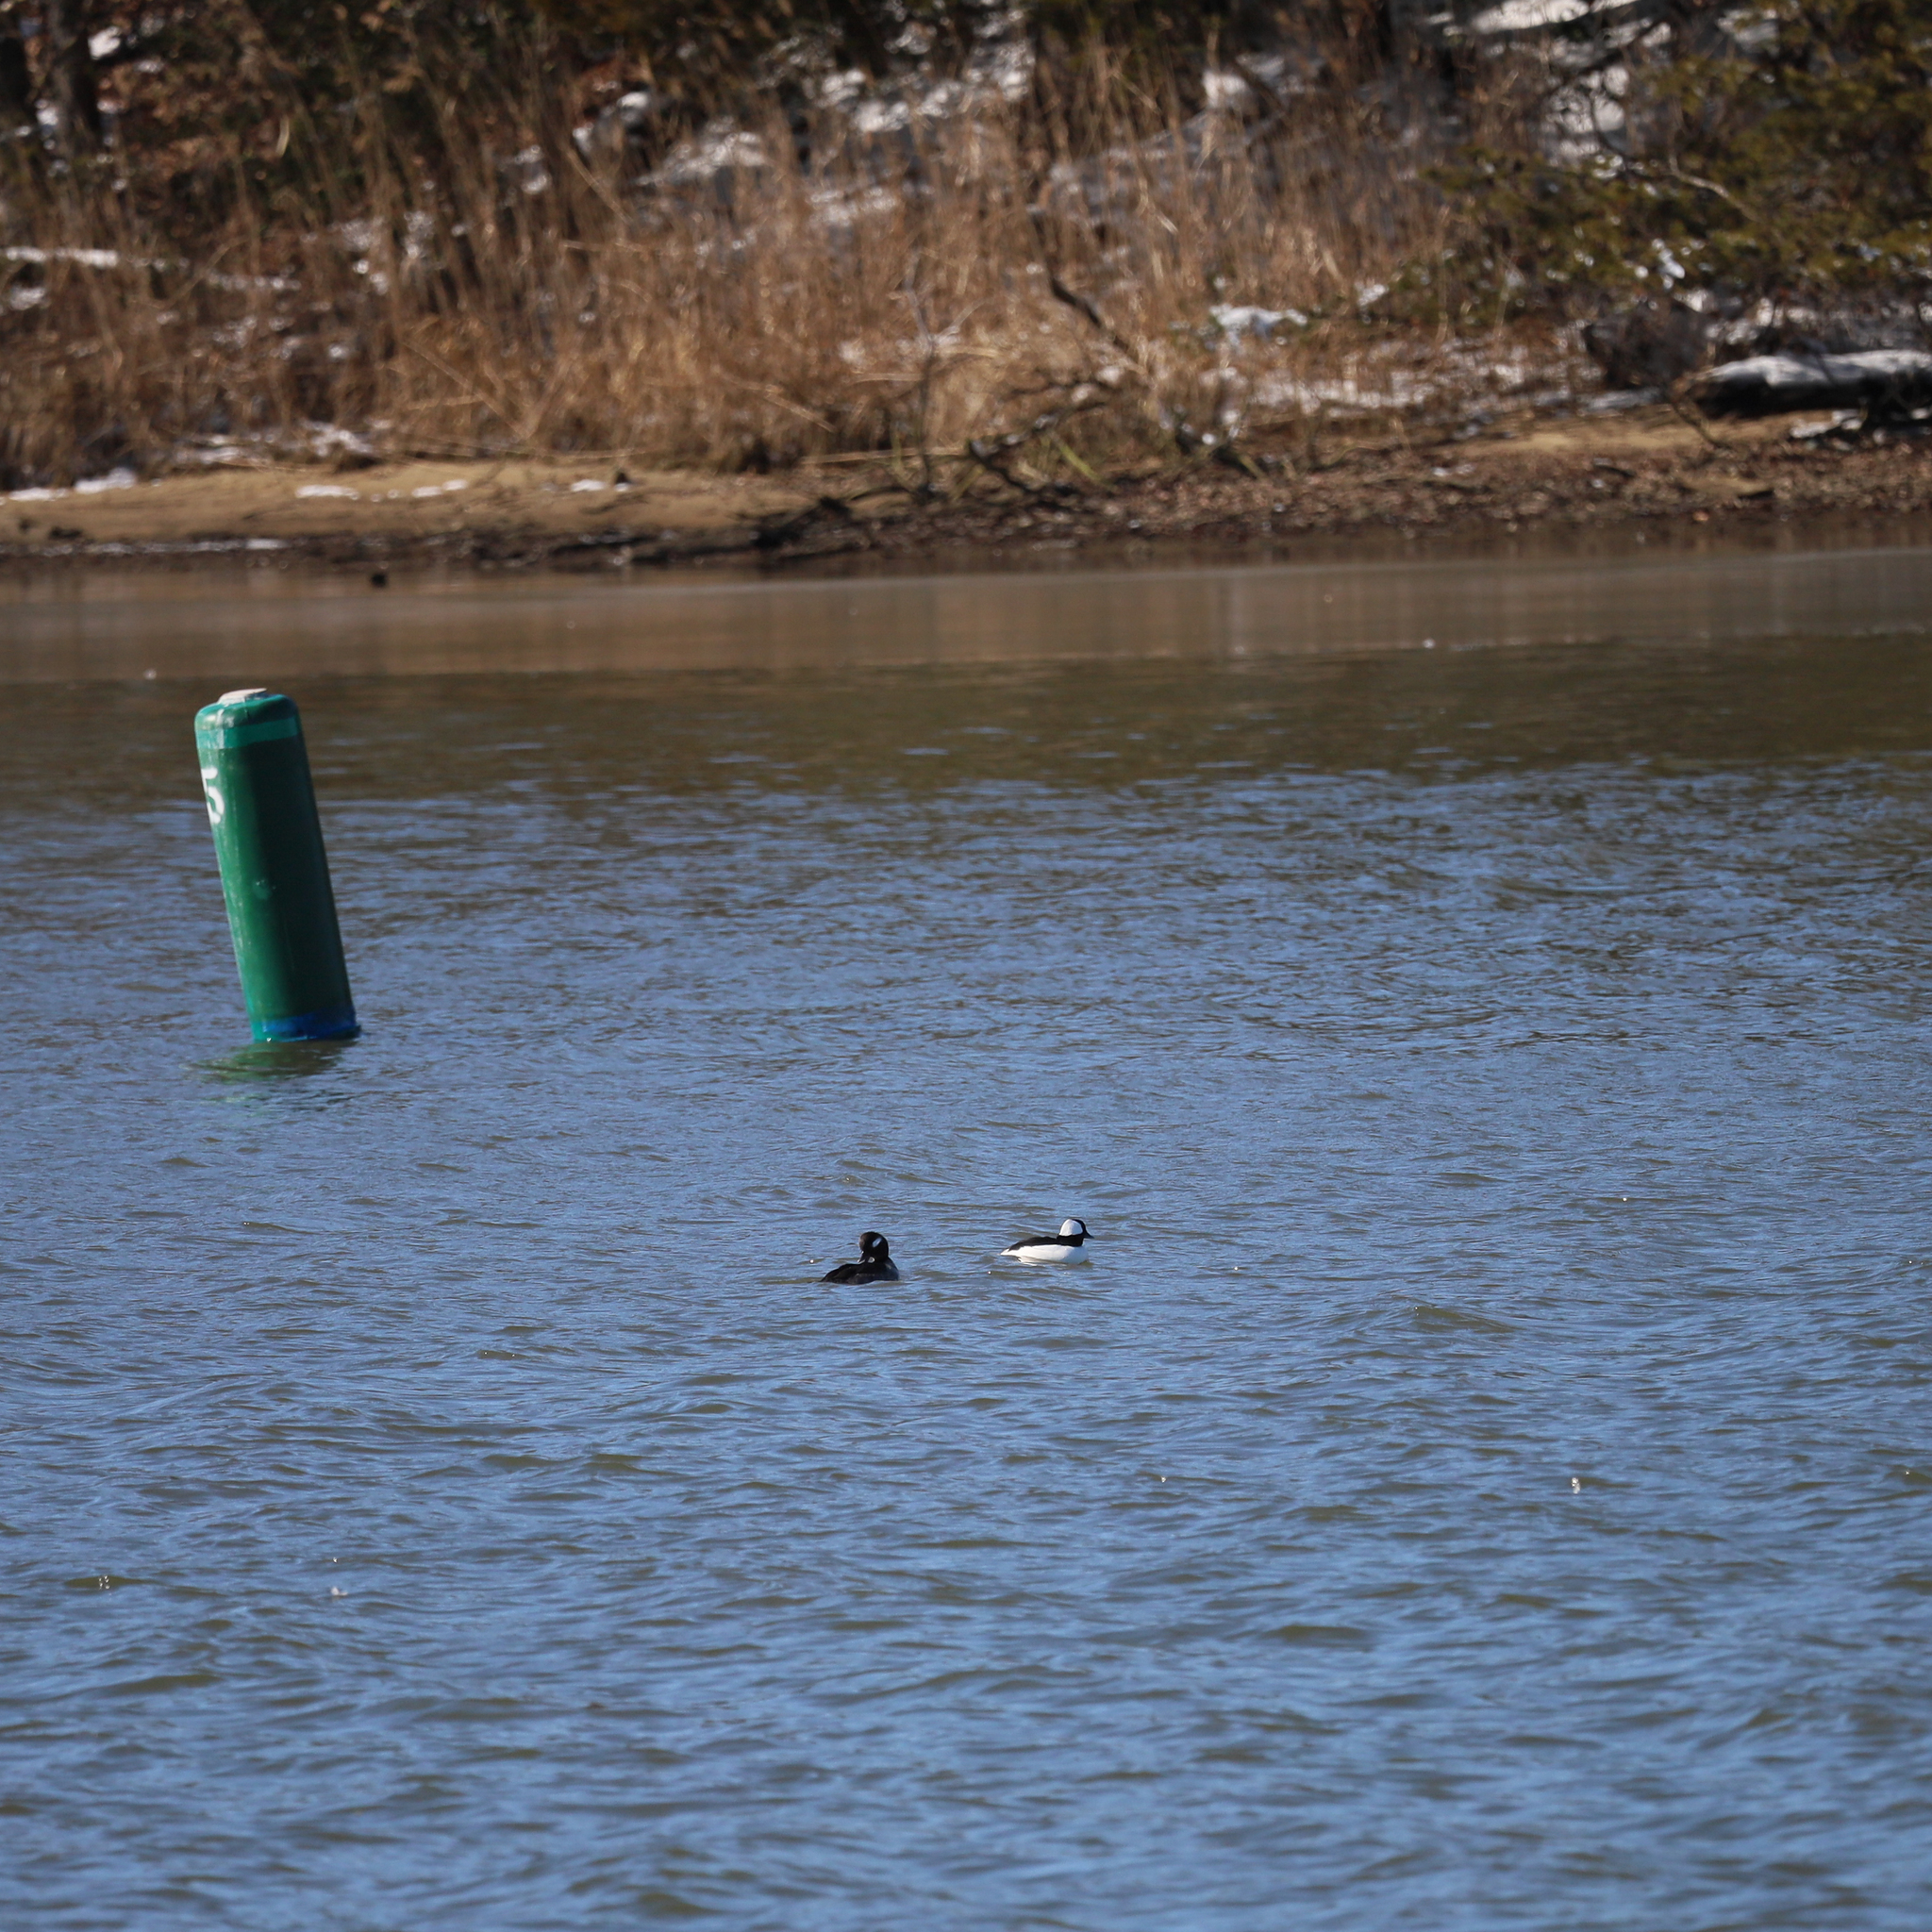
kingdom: Animalia
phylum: Chordata
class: Aves
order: Anseriformes
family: Anatidae
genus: Bucephala
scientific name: Bucephala albeola
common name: Bufflehead
